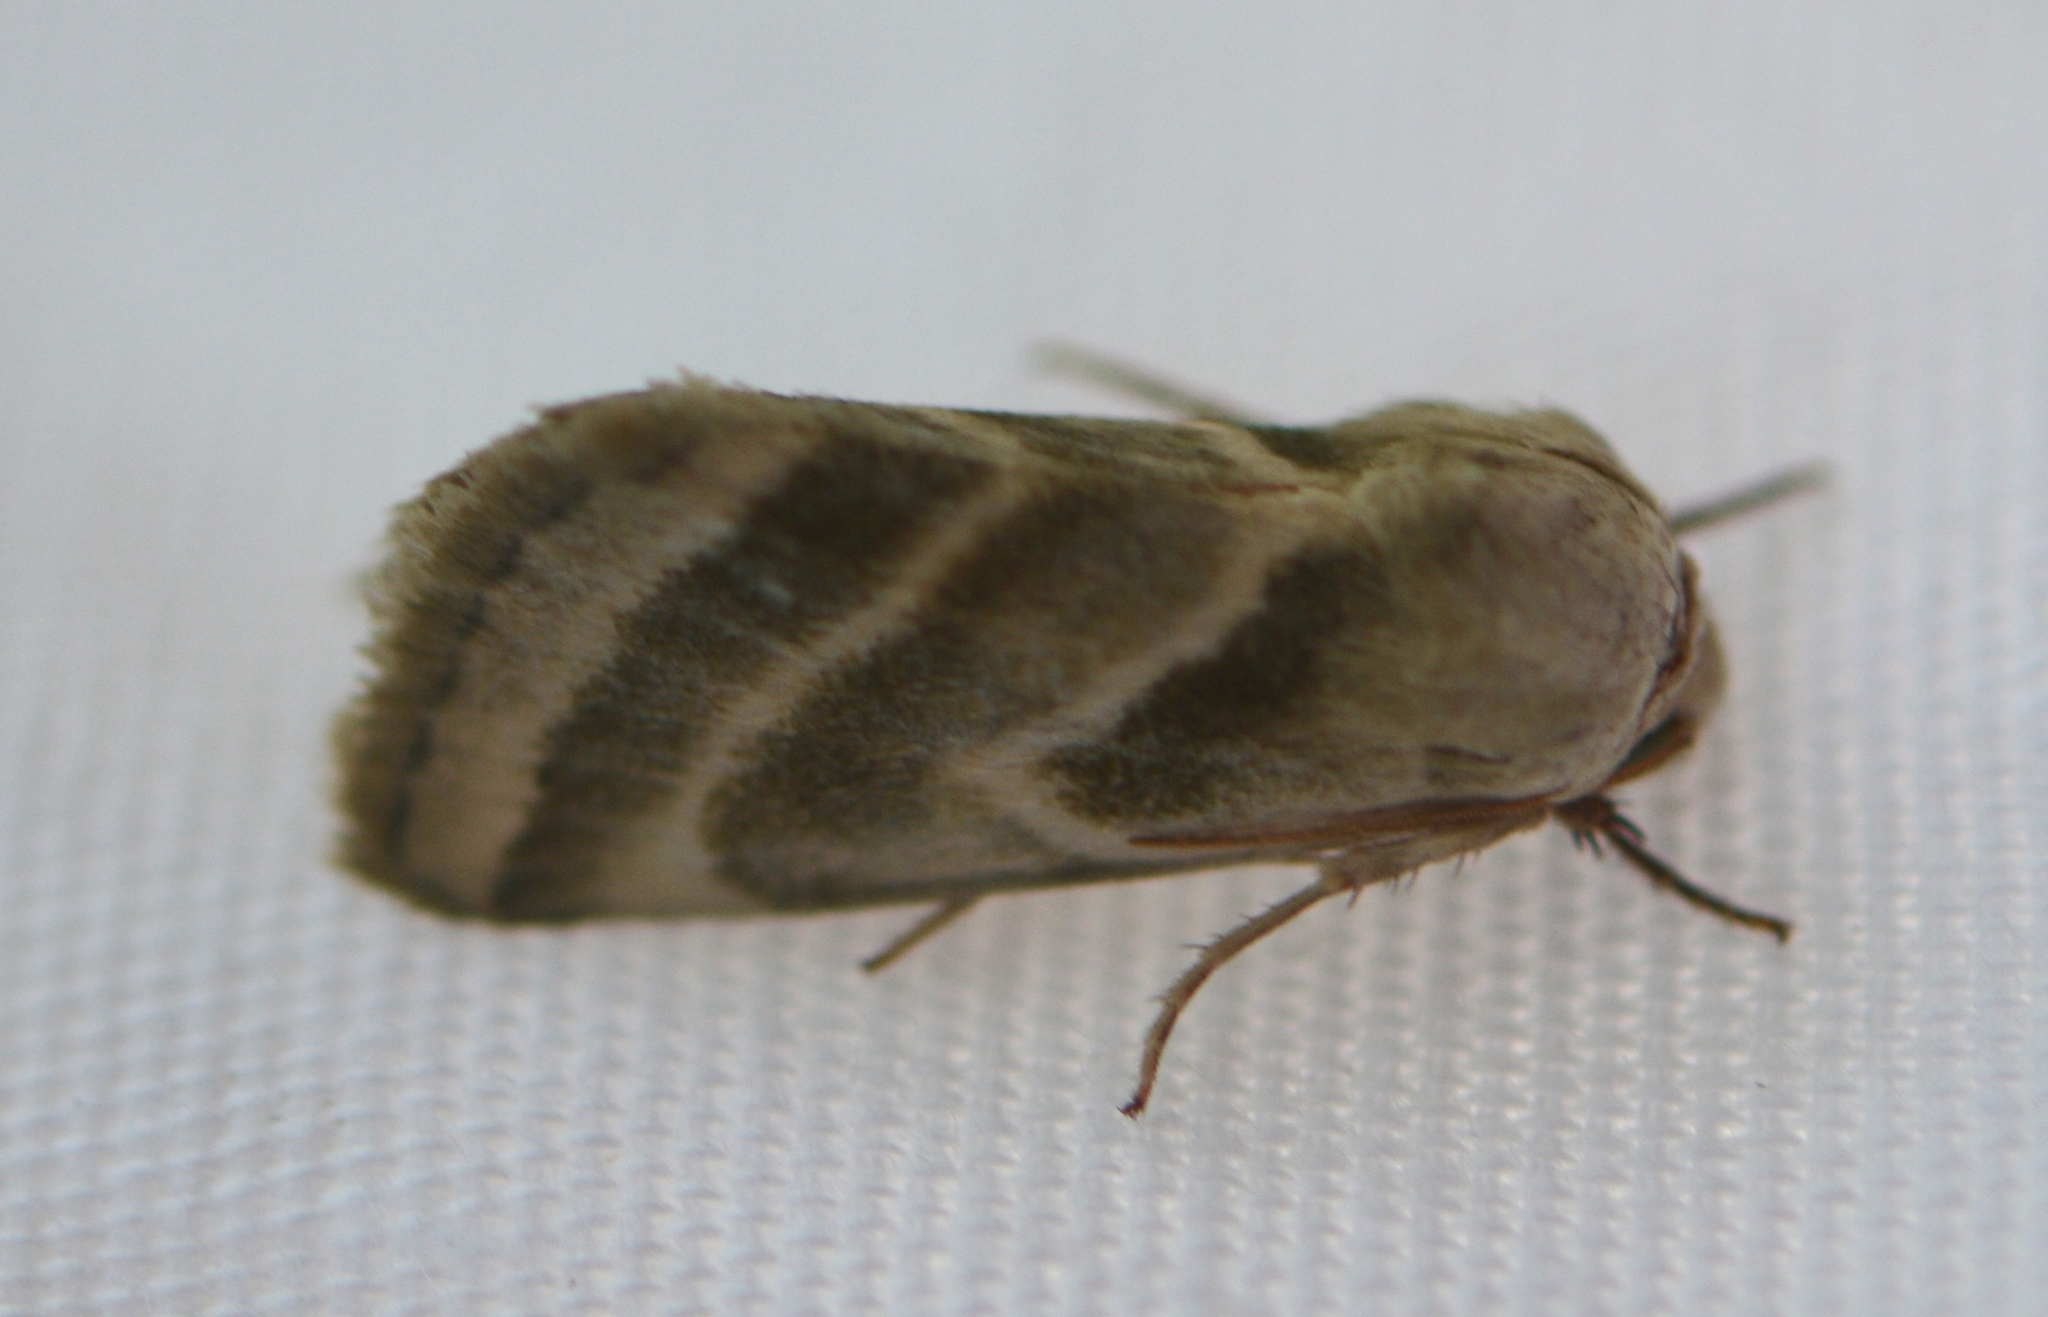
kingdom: Animalia
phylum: Arthropoda
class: Insecta
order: Lepidoptera
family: Noctuidae
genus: Schinia
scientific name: Schinia trifascia
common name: Three-lined flower moth
